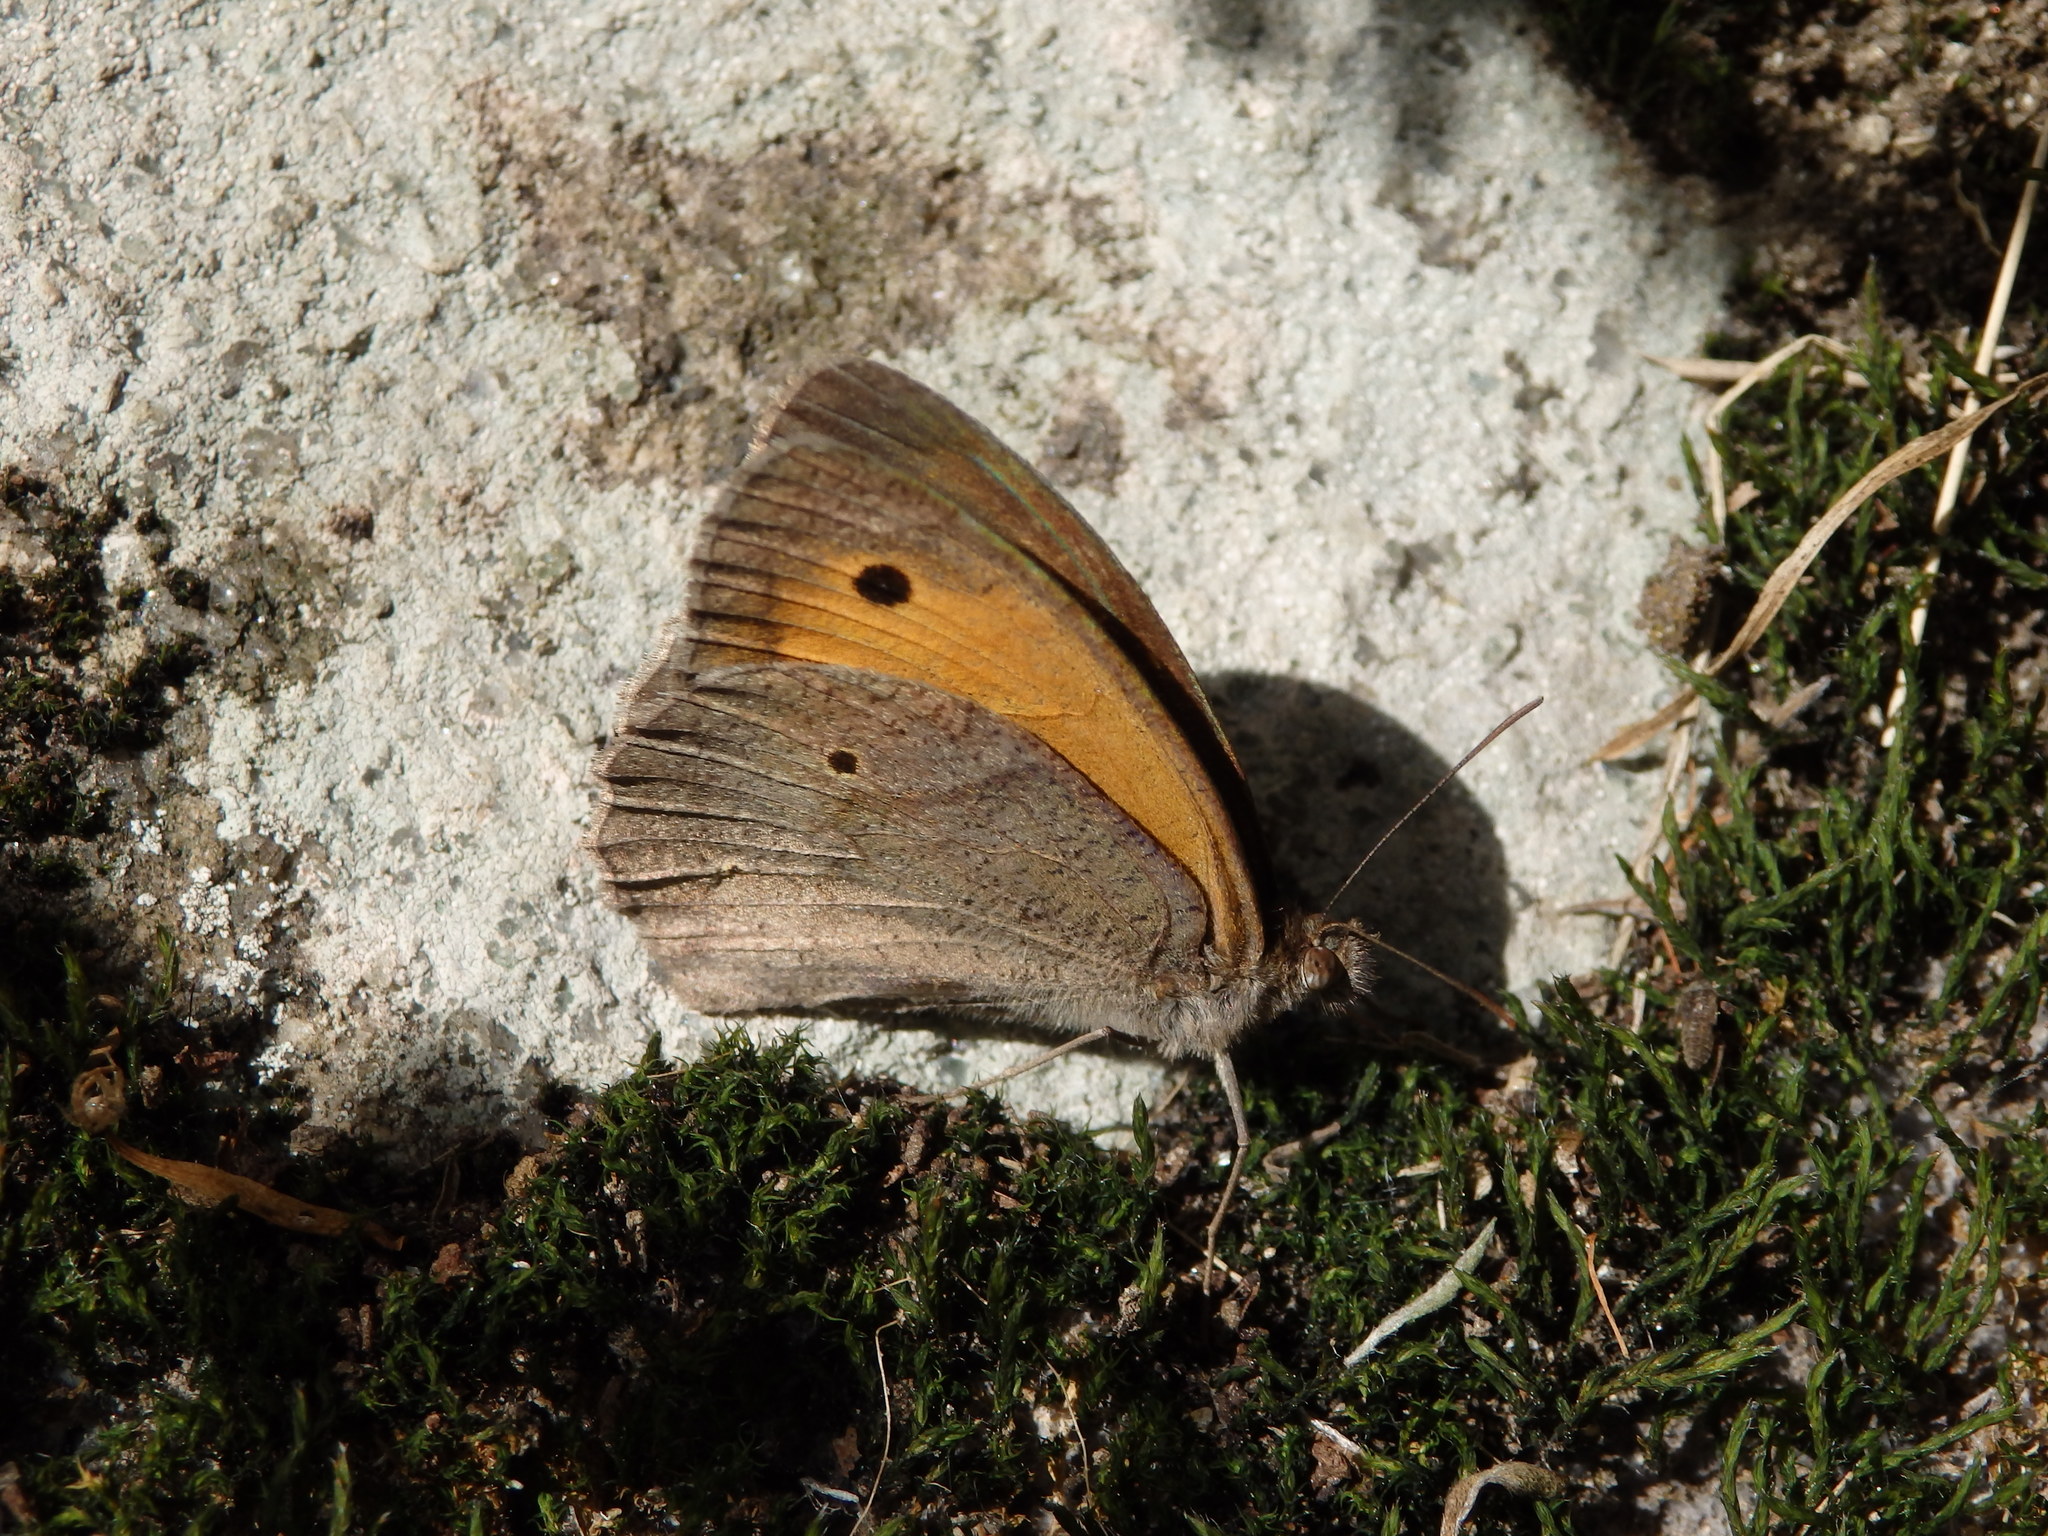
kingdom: Animalia
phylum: Arthropoda
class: Insecta
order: Lepidoptera
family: Nymphalidae
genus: Maniola
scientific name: Maniola jurtina
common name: Meadow brown
